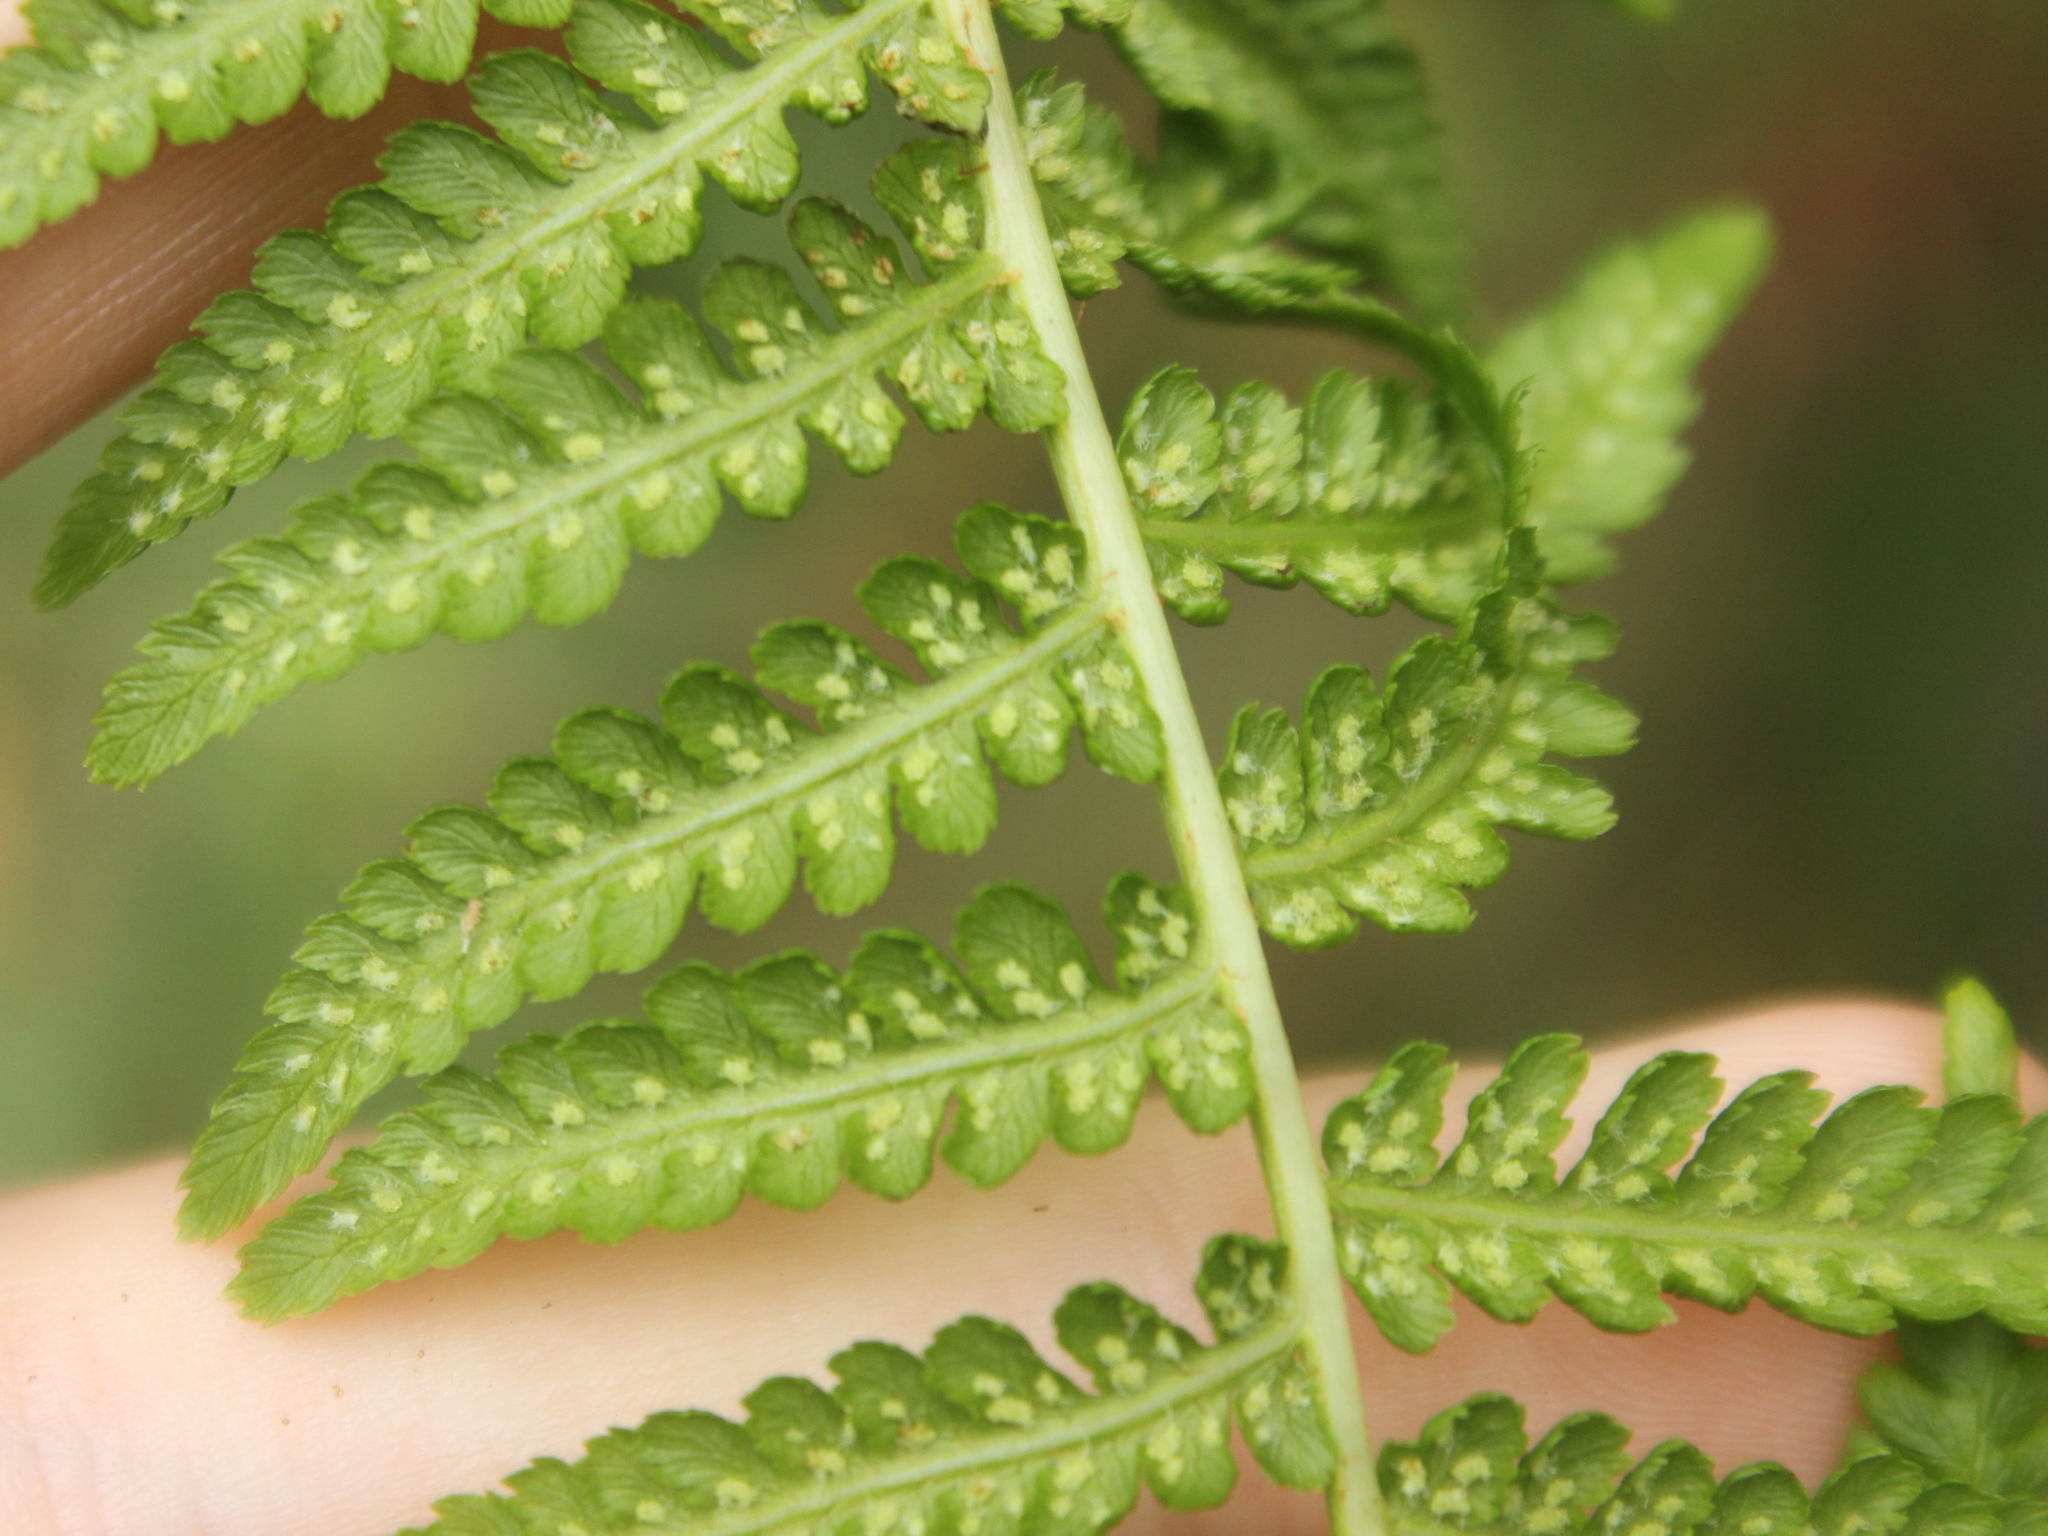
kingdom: Plantae
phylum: Tracheophyta
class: Polypodiopsida
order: Polypodiales
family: Dennstaedtiaceae
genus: Hypolepis
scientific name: Hypolepis ambigua
